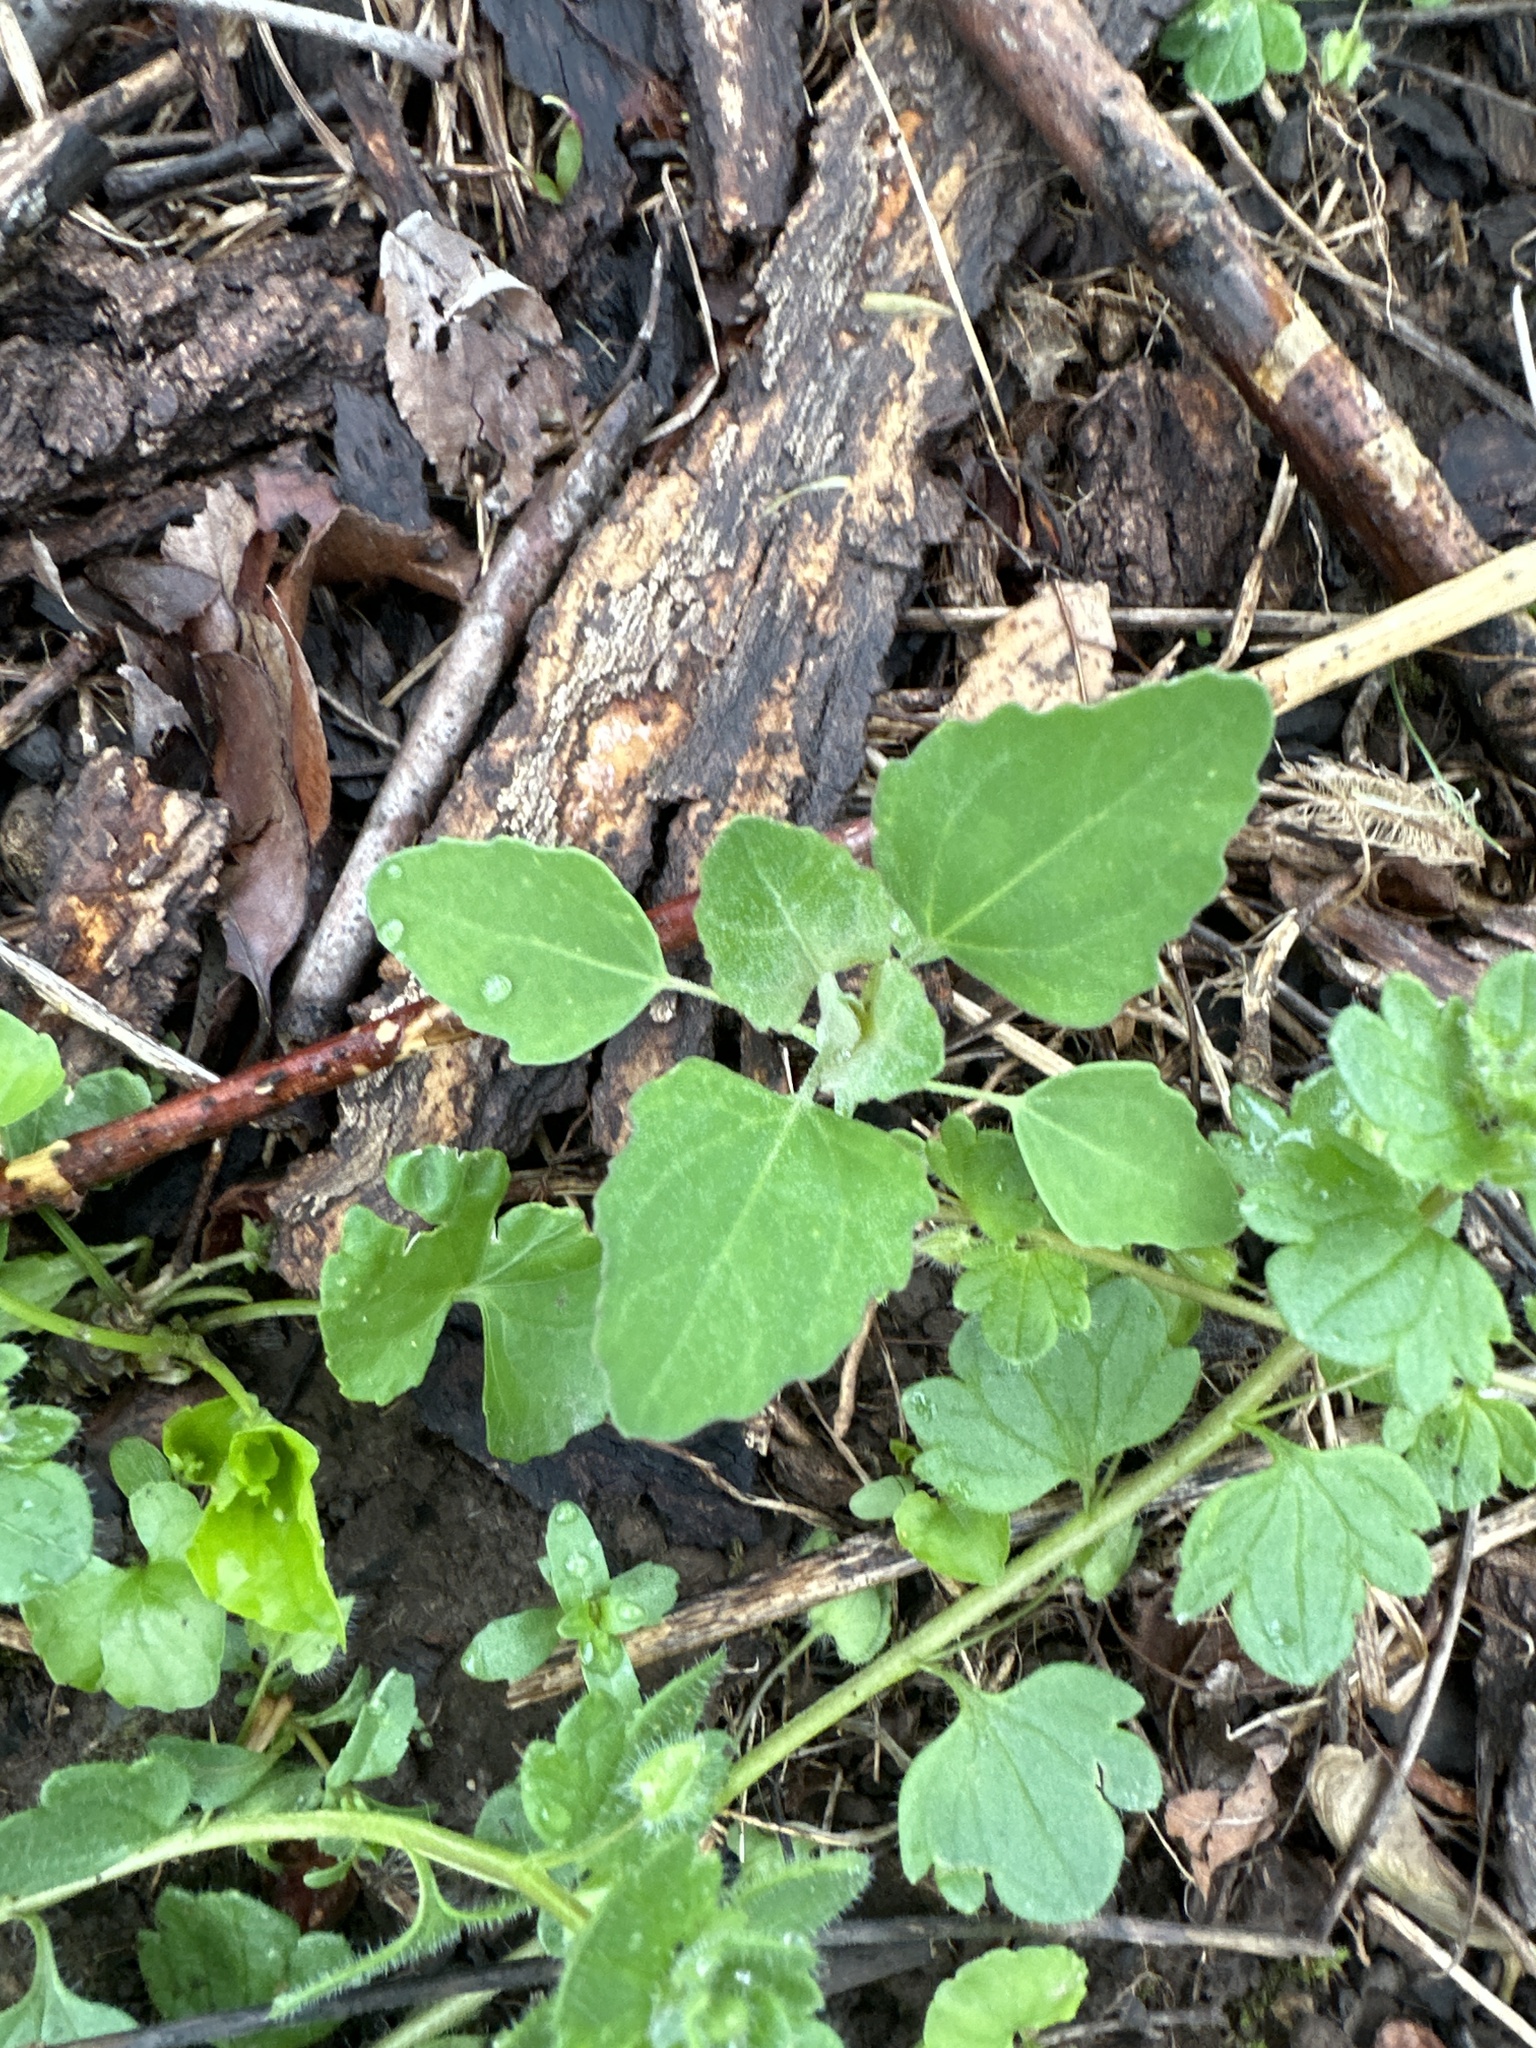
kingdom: Plantae
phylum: Tracheophyta
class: Magnoliopsida
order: Caryophyllales
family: Amaranthaceae
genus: Chenopodium
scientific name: Chenopodium album
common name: Fat-hen
